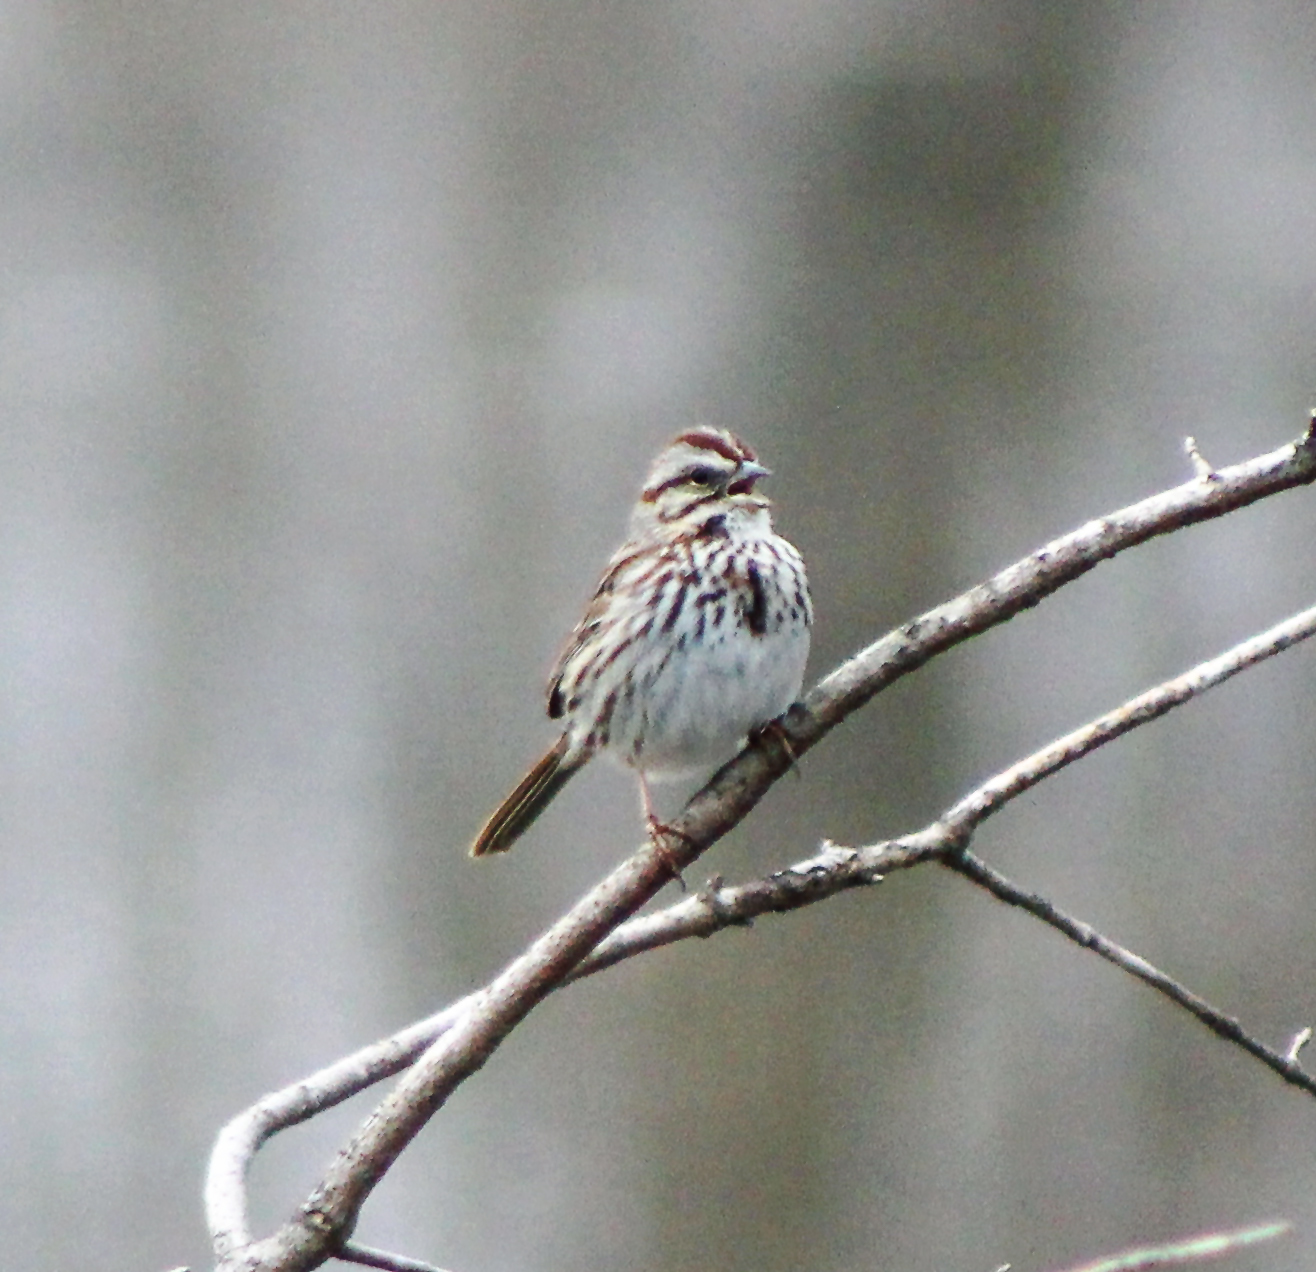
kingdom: Animalia
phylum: Chordata
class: Aves
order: Passeriformes
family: Passerellidae
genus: Melospiza
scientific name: Melospiza melodia
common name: Song sparrow
